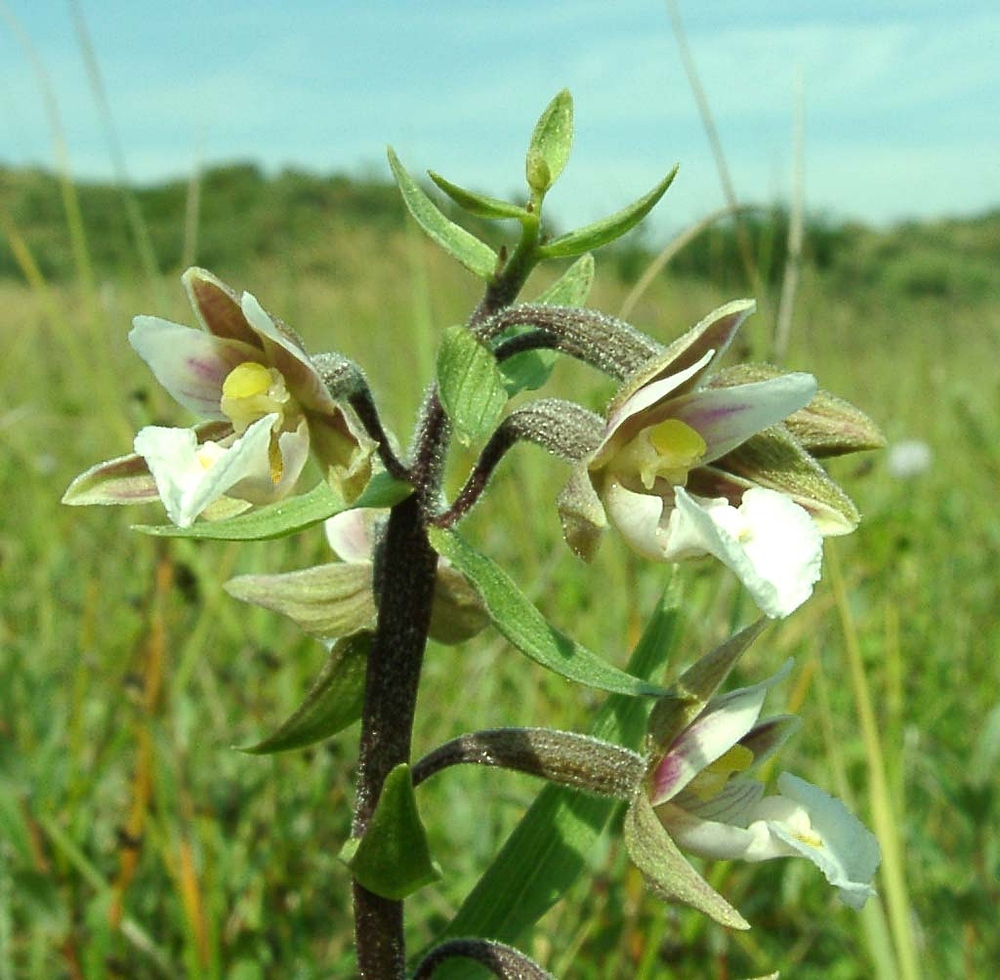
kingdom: Plantae
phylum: Tracheophyta
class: Liliopsida
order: Asparagales
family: Orchidaceae
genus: Epipactis
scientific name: Epipactis palustris
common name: Marsh helleborine
